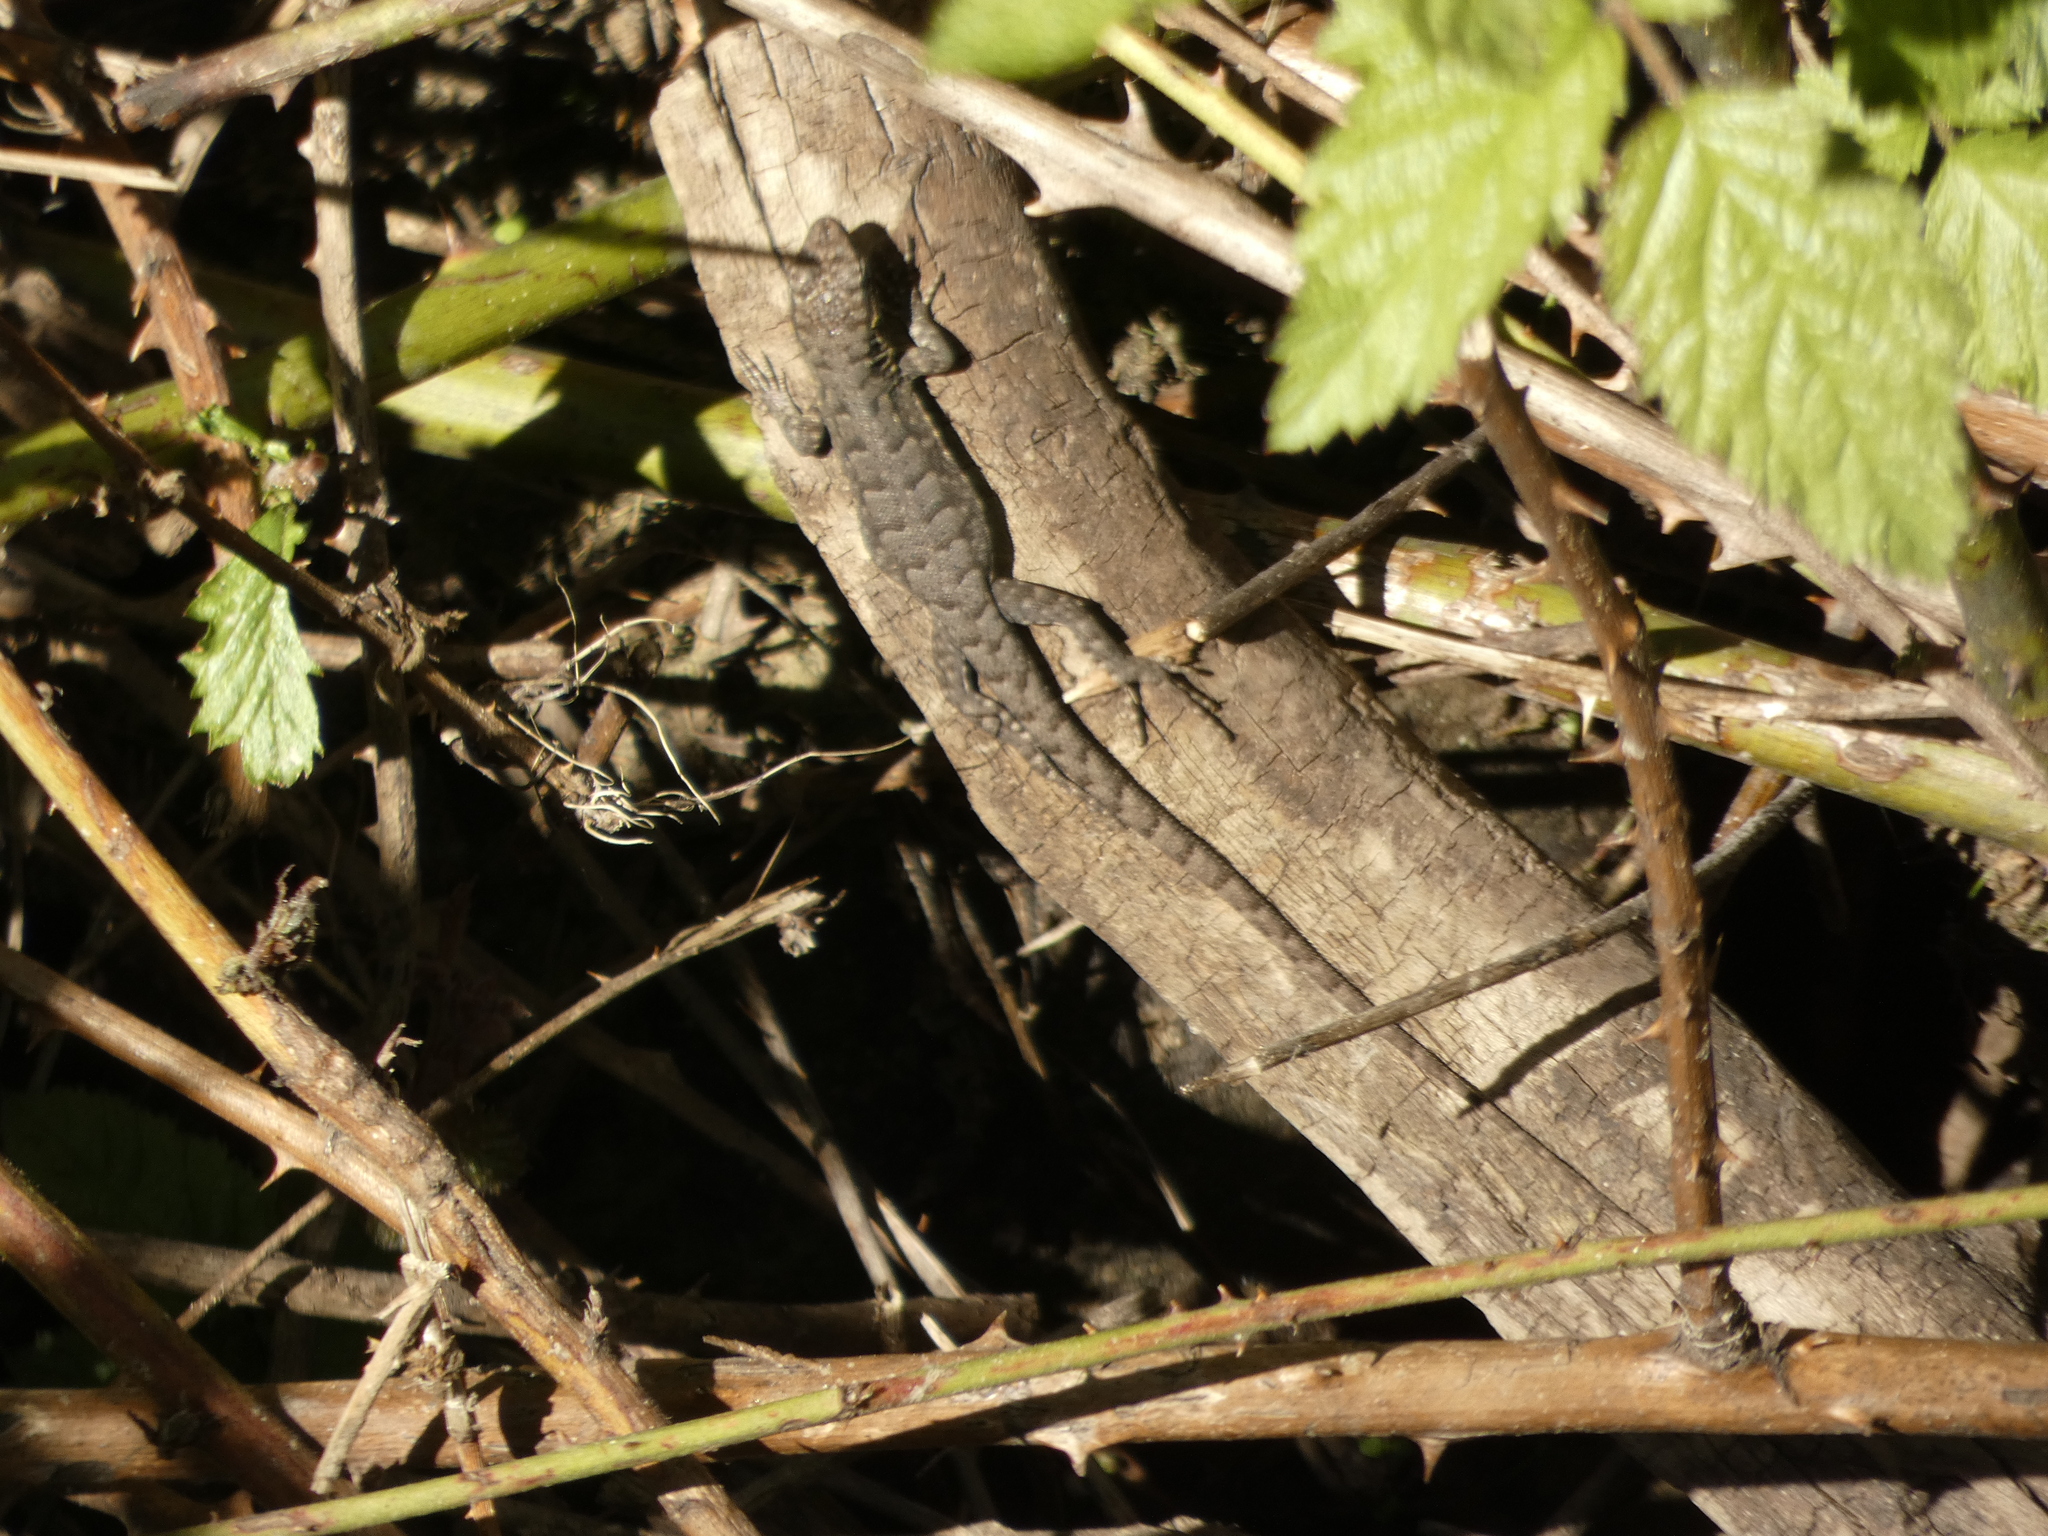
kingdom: Animalia
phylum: Chordata
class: Squamata
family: Liolaemidae
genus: Liolaemus
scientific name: Liolaemus tenuis
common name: Thin tree iguana
